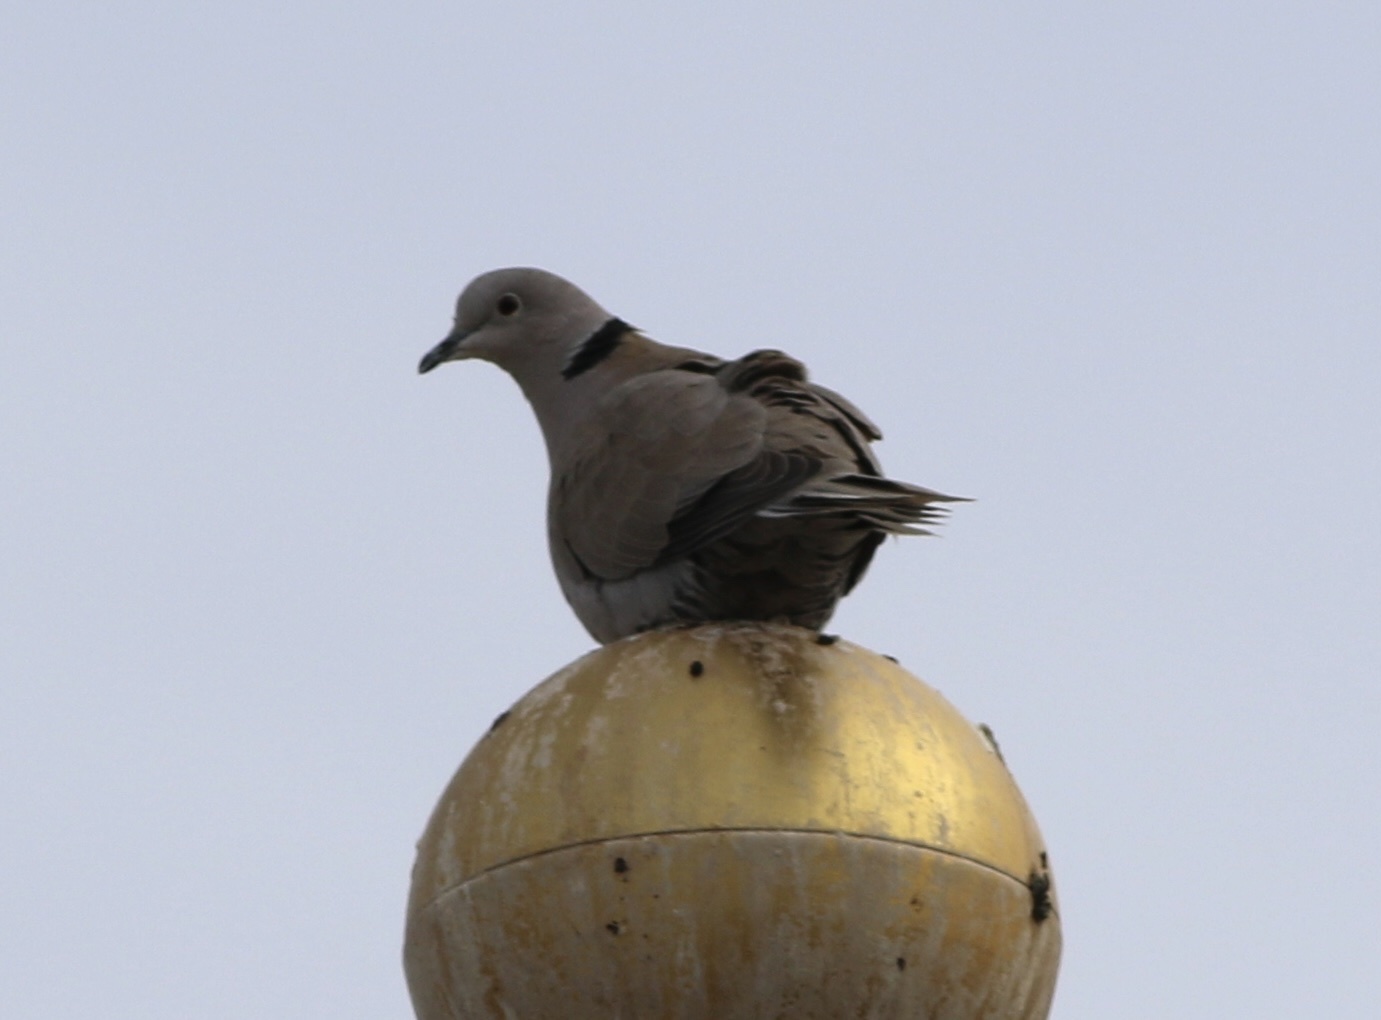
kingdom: Animalia
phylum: Chordata
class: Aves
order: Columbiformes
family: Columbidae
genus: Streptopelia
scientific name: Streptopelia decaocto
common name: Eurasian collared dove
